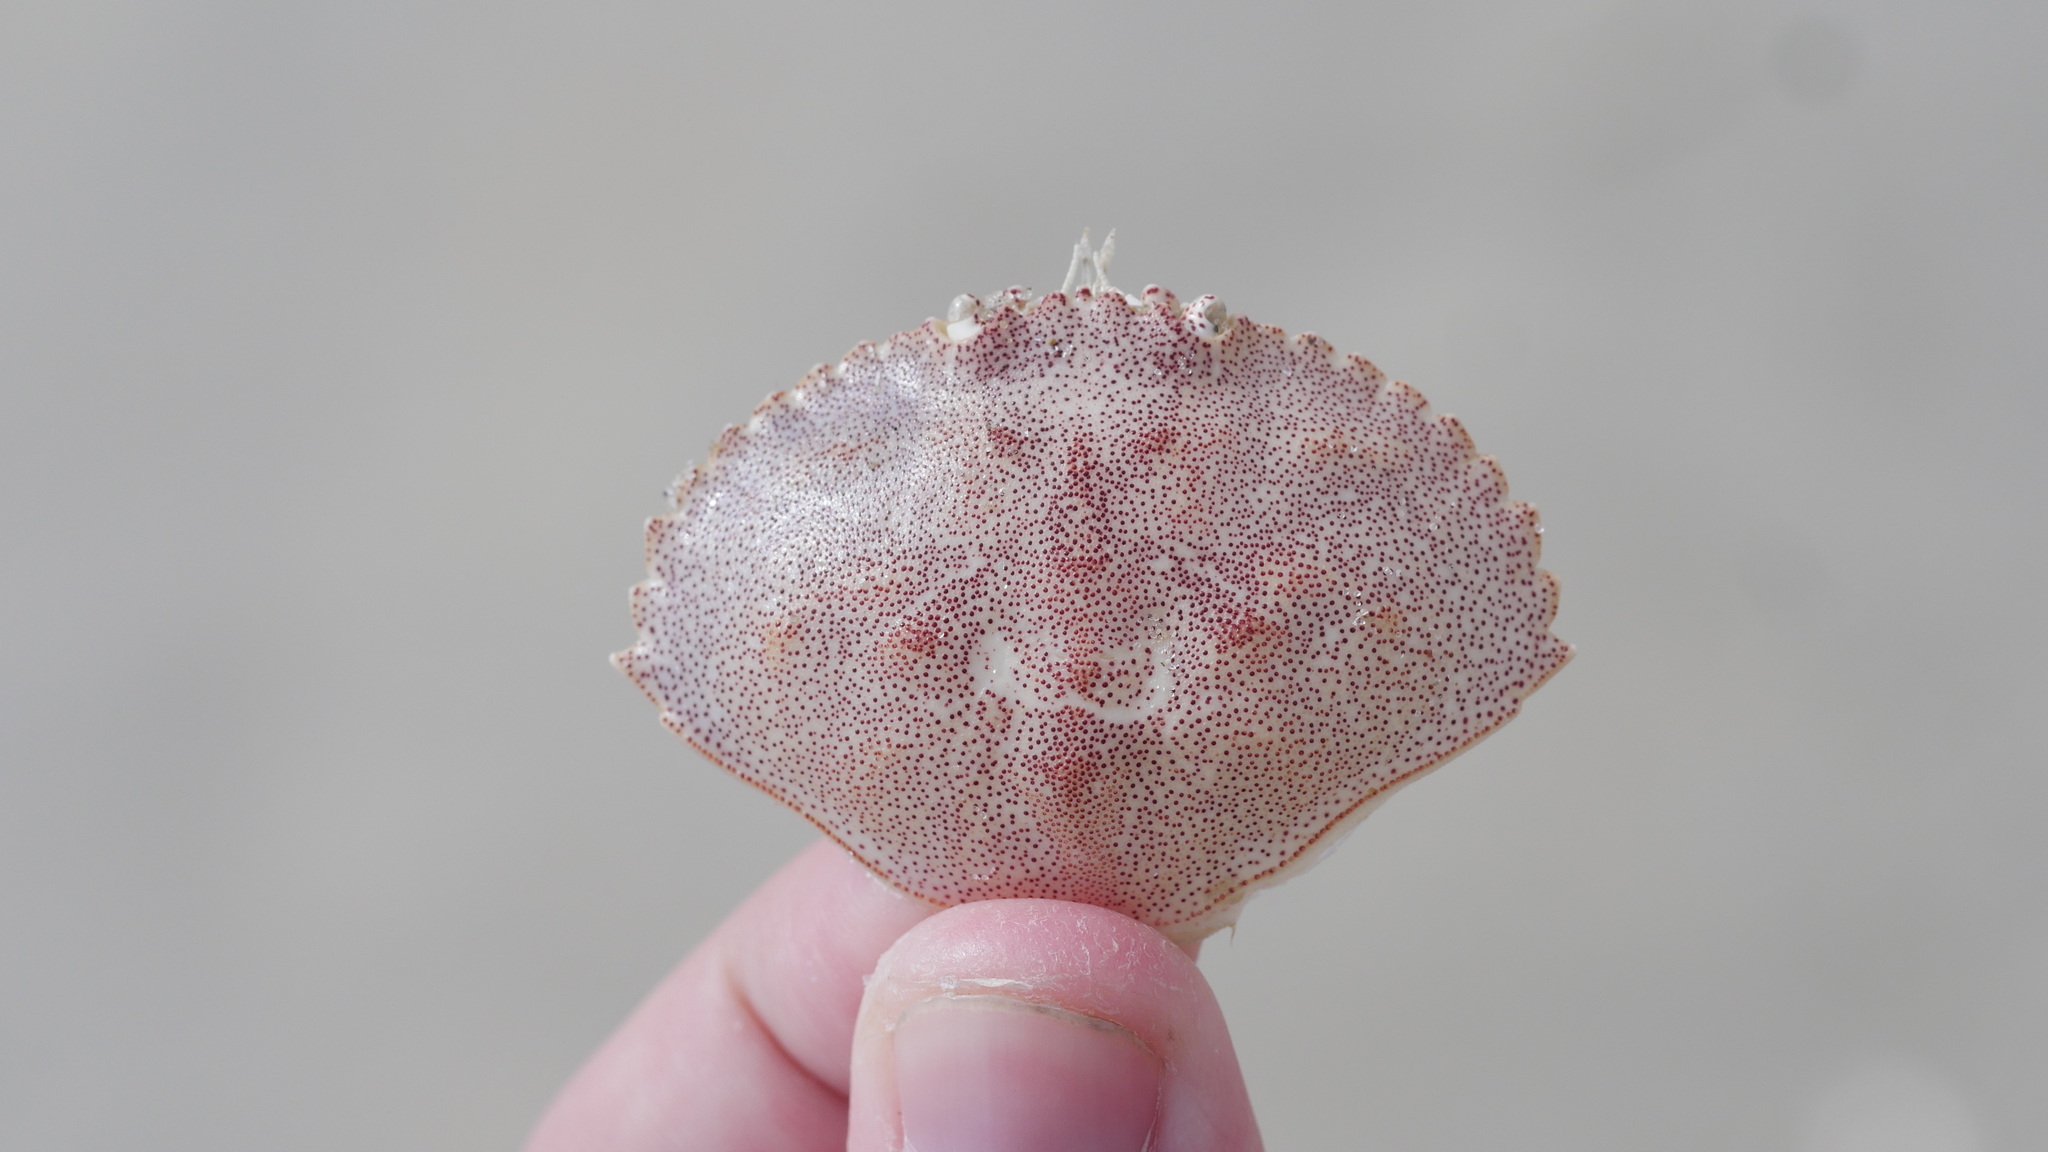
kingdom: Animalia
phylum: Arthropoda
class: Malacostraca
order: Decapoda
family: Cancridae
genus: Cancer
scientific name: Cancer irroratus
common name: Atlantic rock crab
